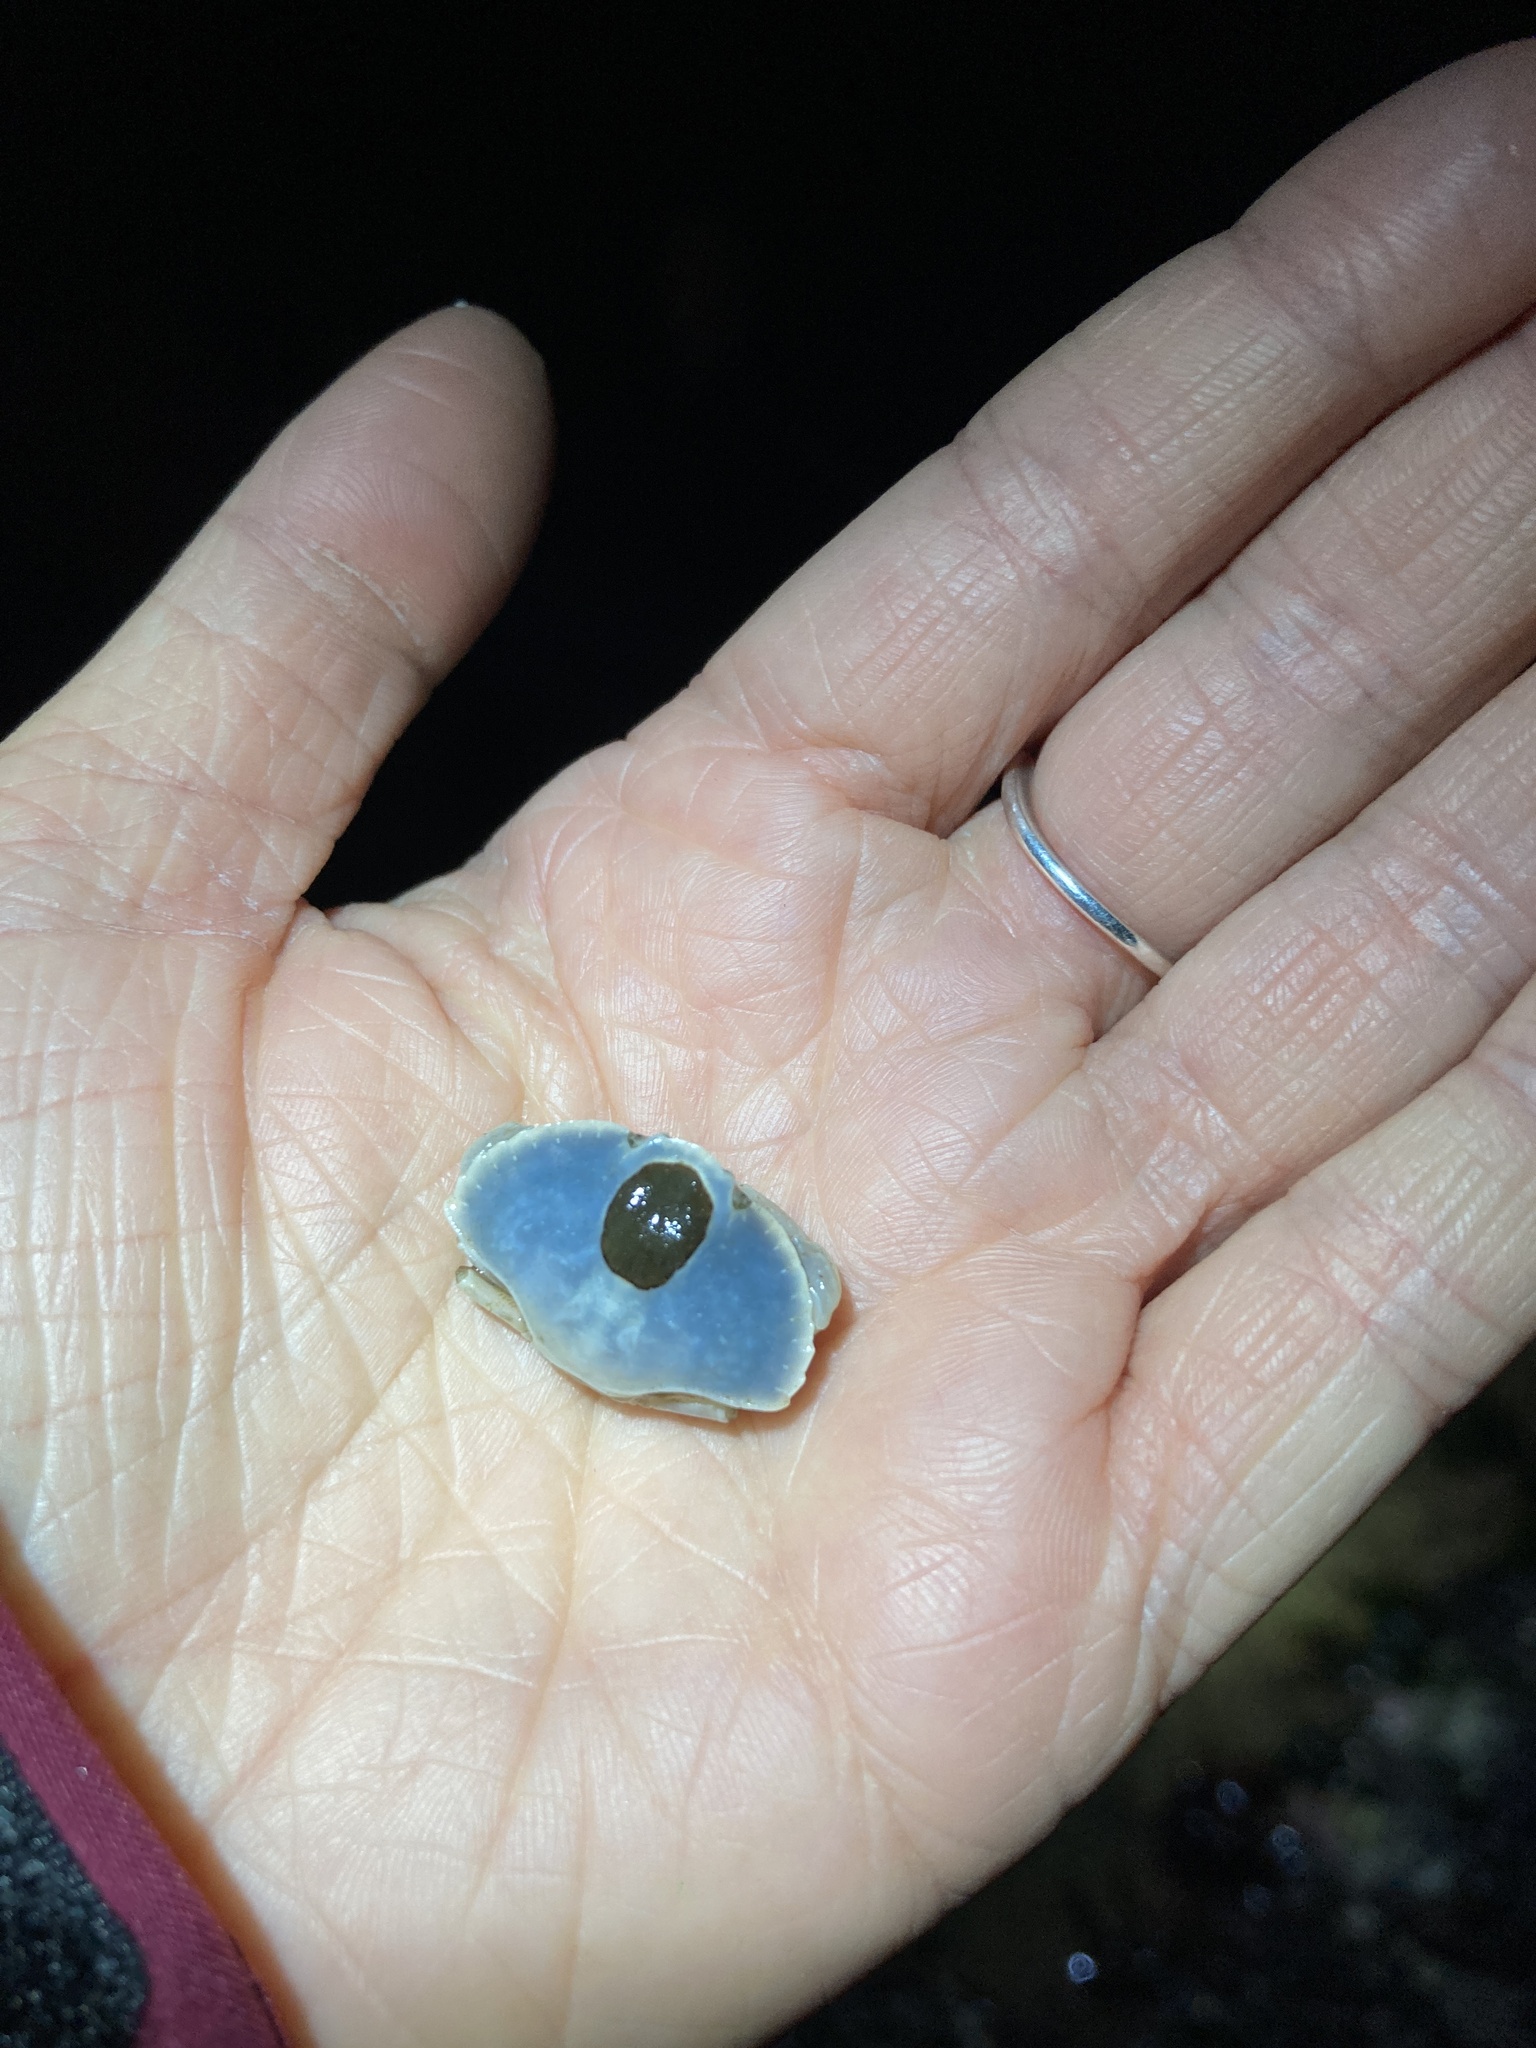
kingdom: Animalia
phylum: Arthropoda
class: Malacostraca
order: Decapoda
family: Cancridae
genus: Cancer
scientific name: Cancer productus
